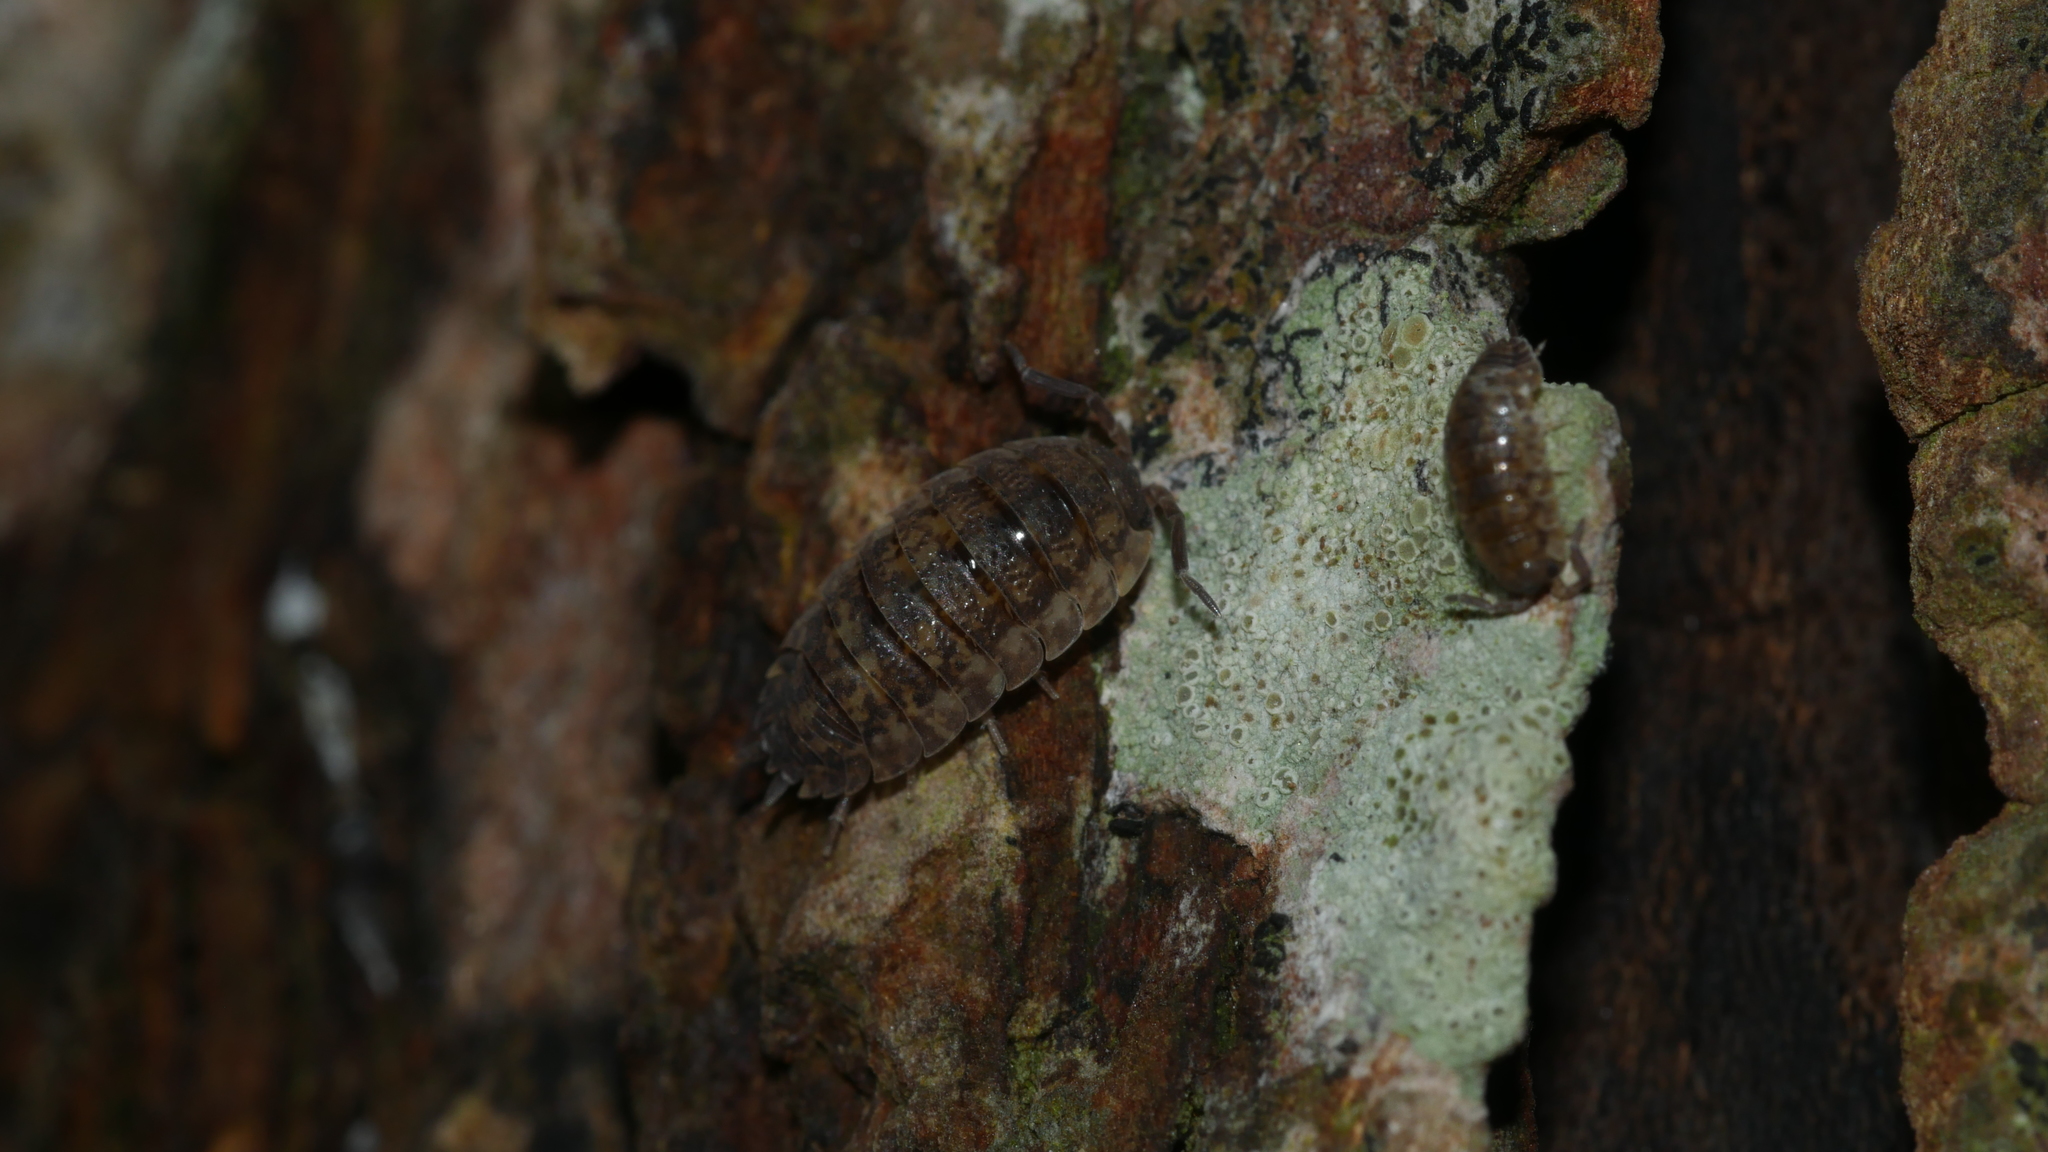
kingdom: Animalia
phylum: Arthropoda
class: Malacostraca
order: Isopoda
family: Porcellionidae
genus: Porcellio
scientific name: Porcellio scaber
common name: Common rough woodlouse
